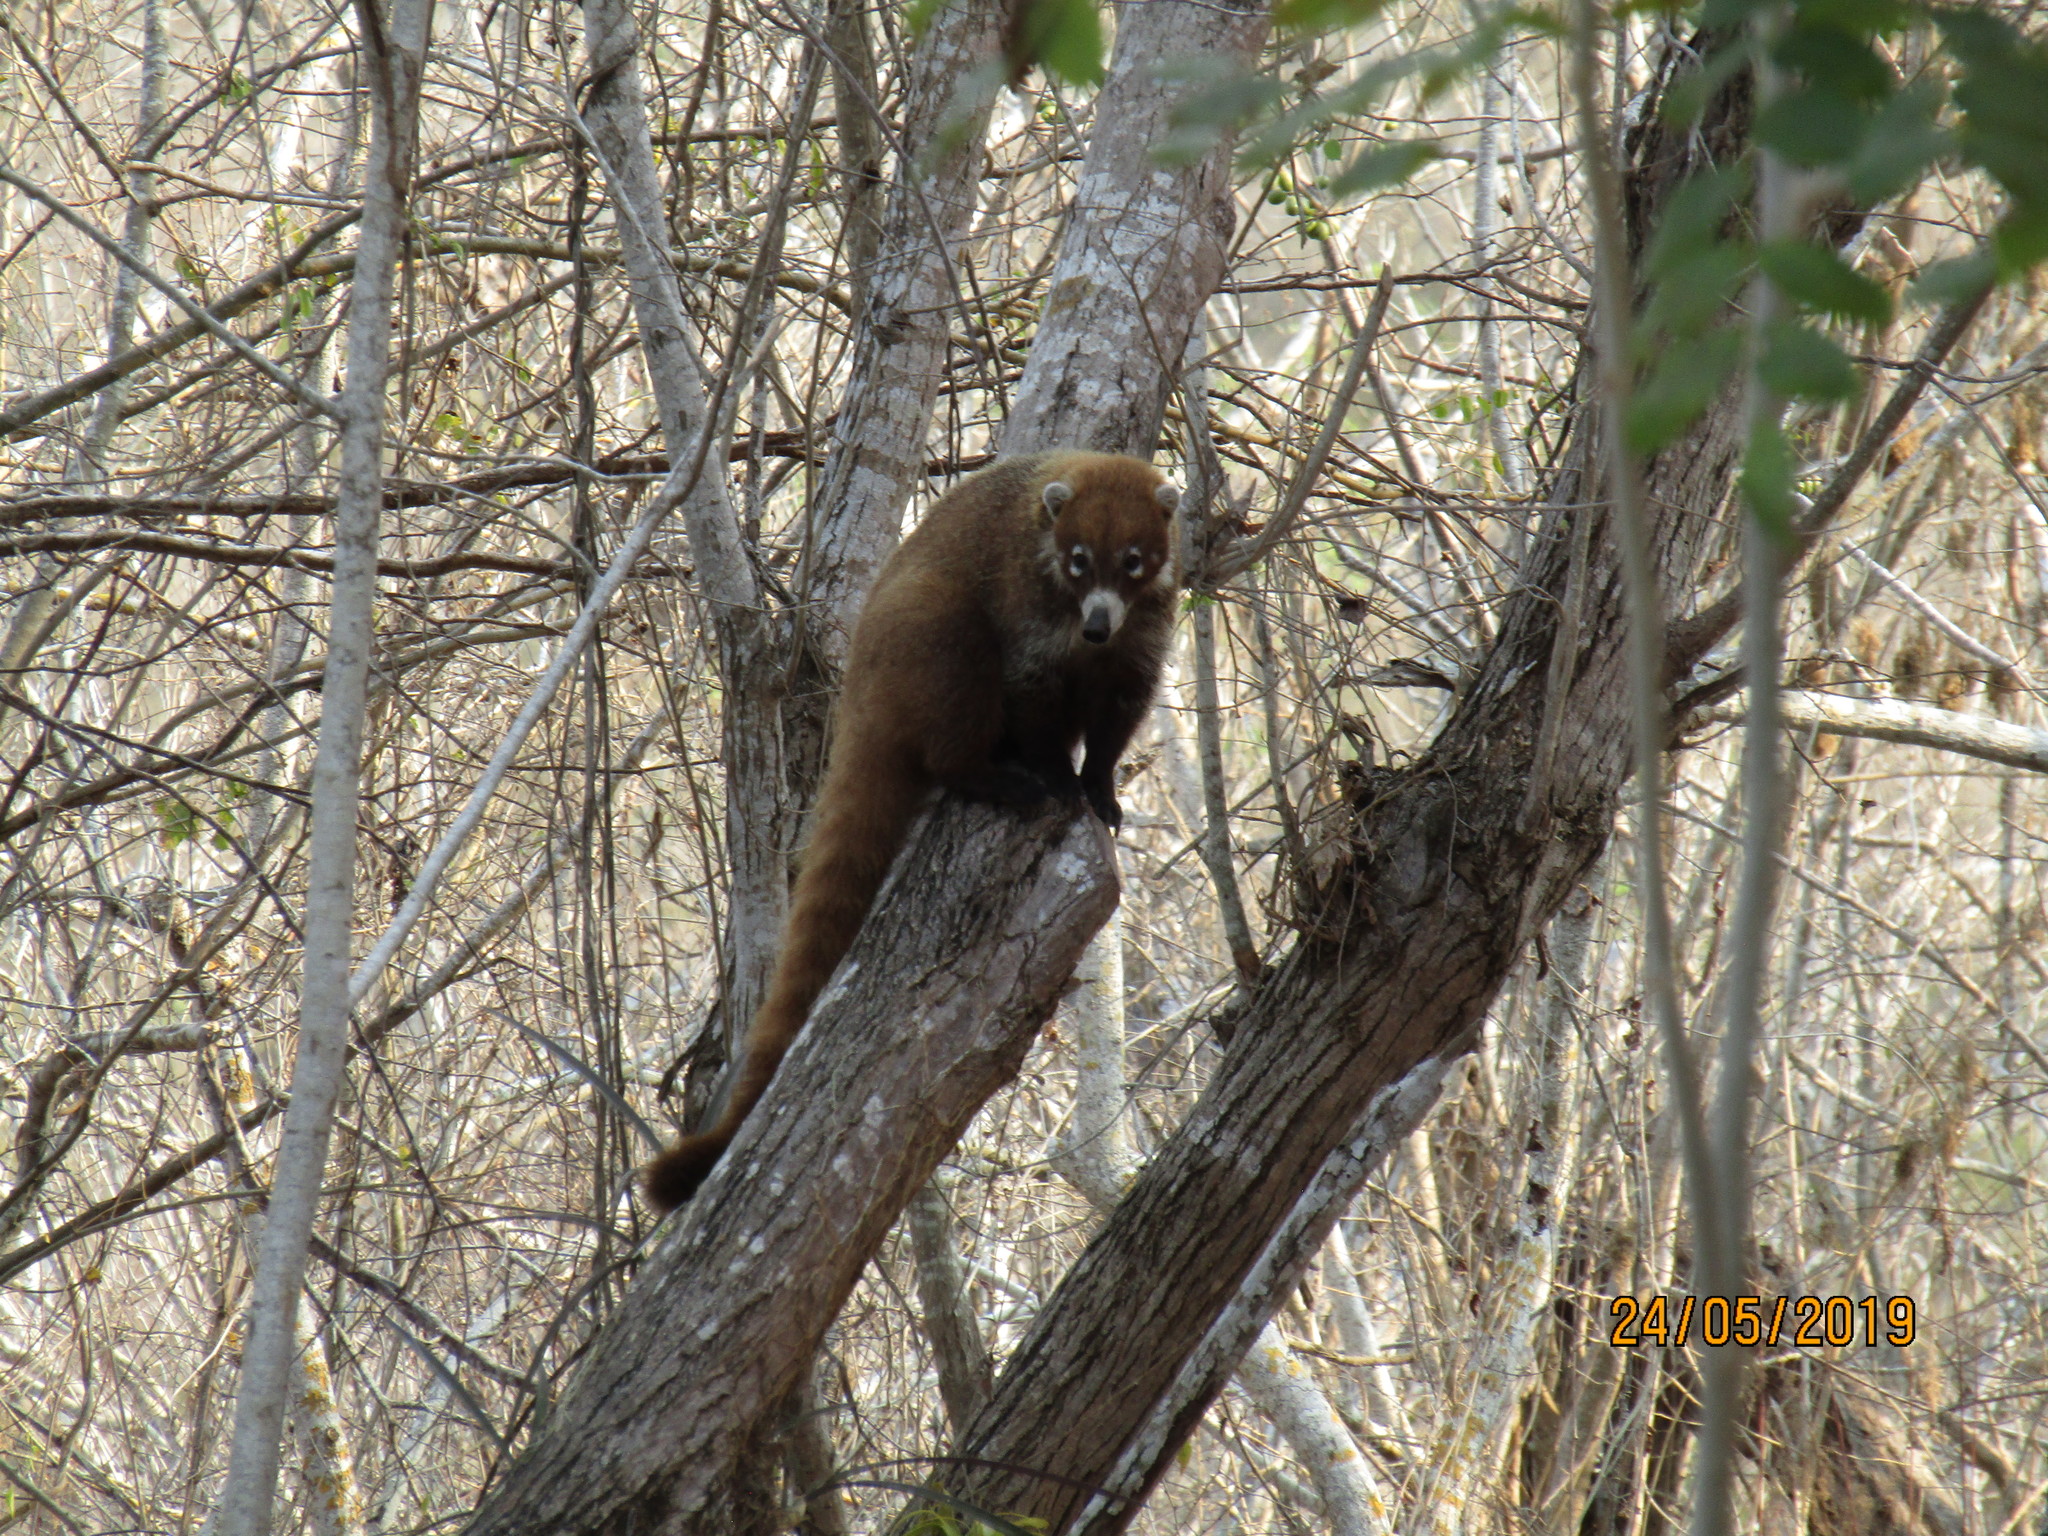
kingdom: Animalia
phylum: Chordata
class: Mammalia
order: Carnivora
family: Procyonidae
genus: Nasua
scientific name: Nasua narica
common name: White-nosed coati
